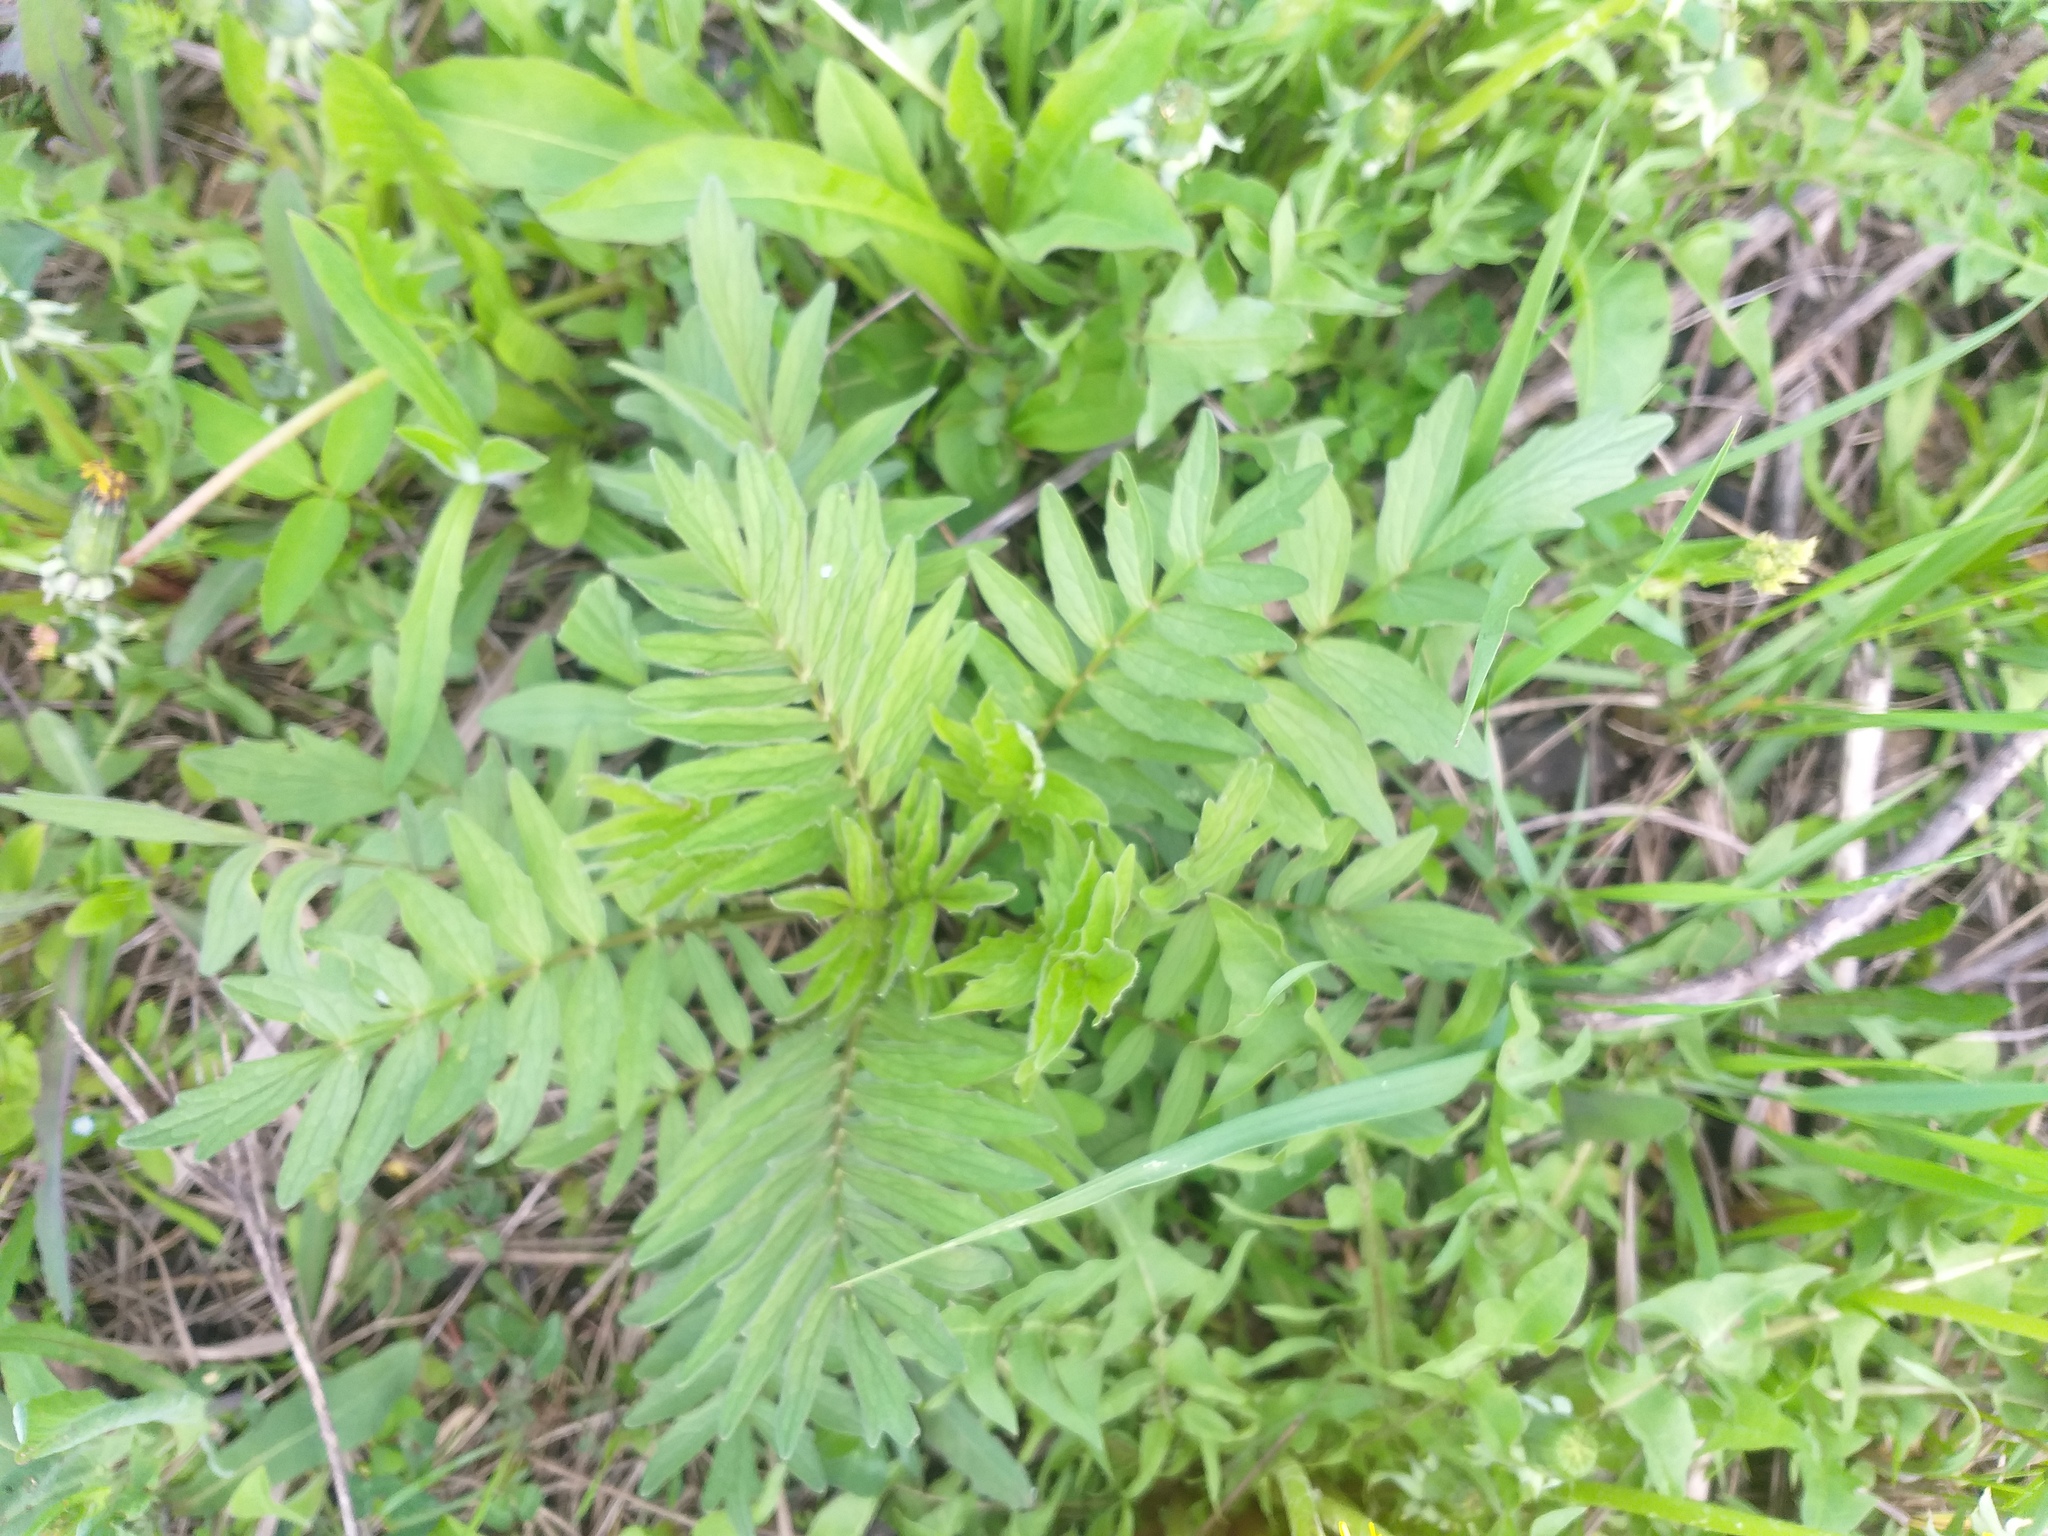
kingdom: Plantae
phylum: Tracheophyta
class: Magnoliopsida
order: Dipsacales
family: Caprifoliaceae
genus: Valeriana
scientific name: Valeriana officinalis
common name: Common valerian
